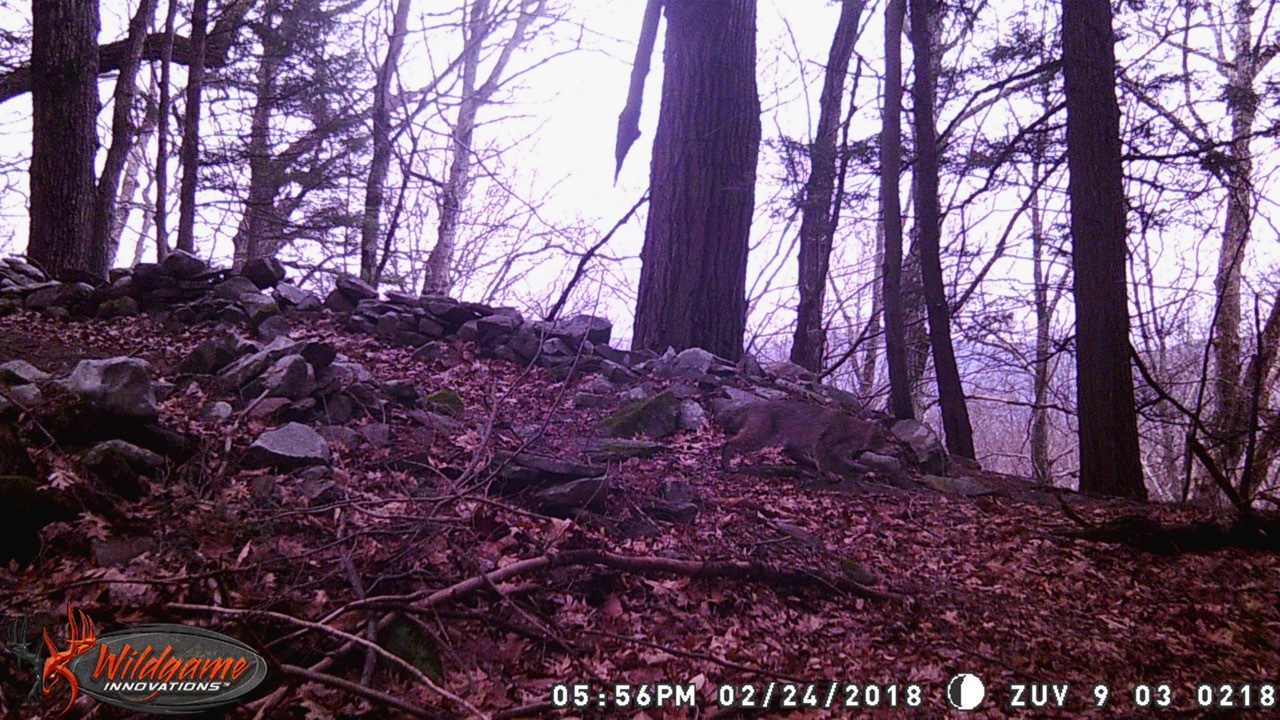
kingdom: Animalia
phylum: Chordata
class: Mammalia
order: Carnivora
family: Felidae
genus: Lynx
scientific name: Lynx rufus
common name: Bobcat
